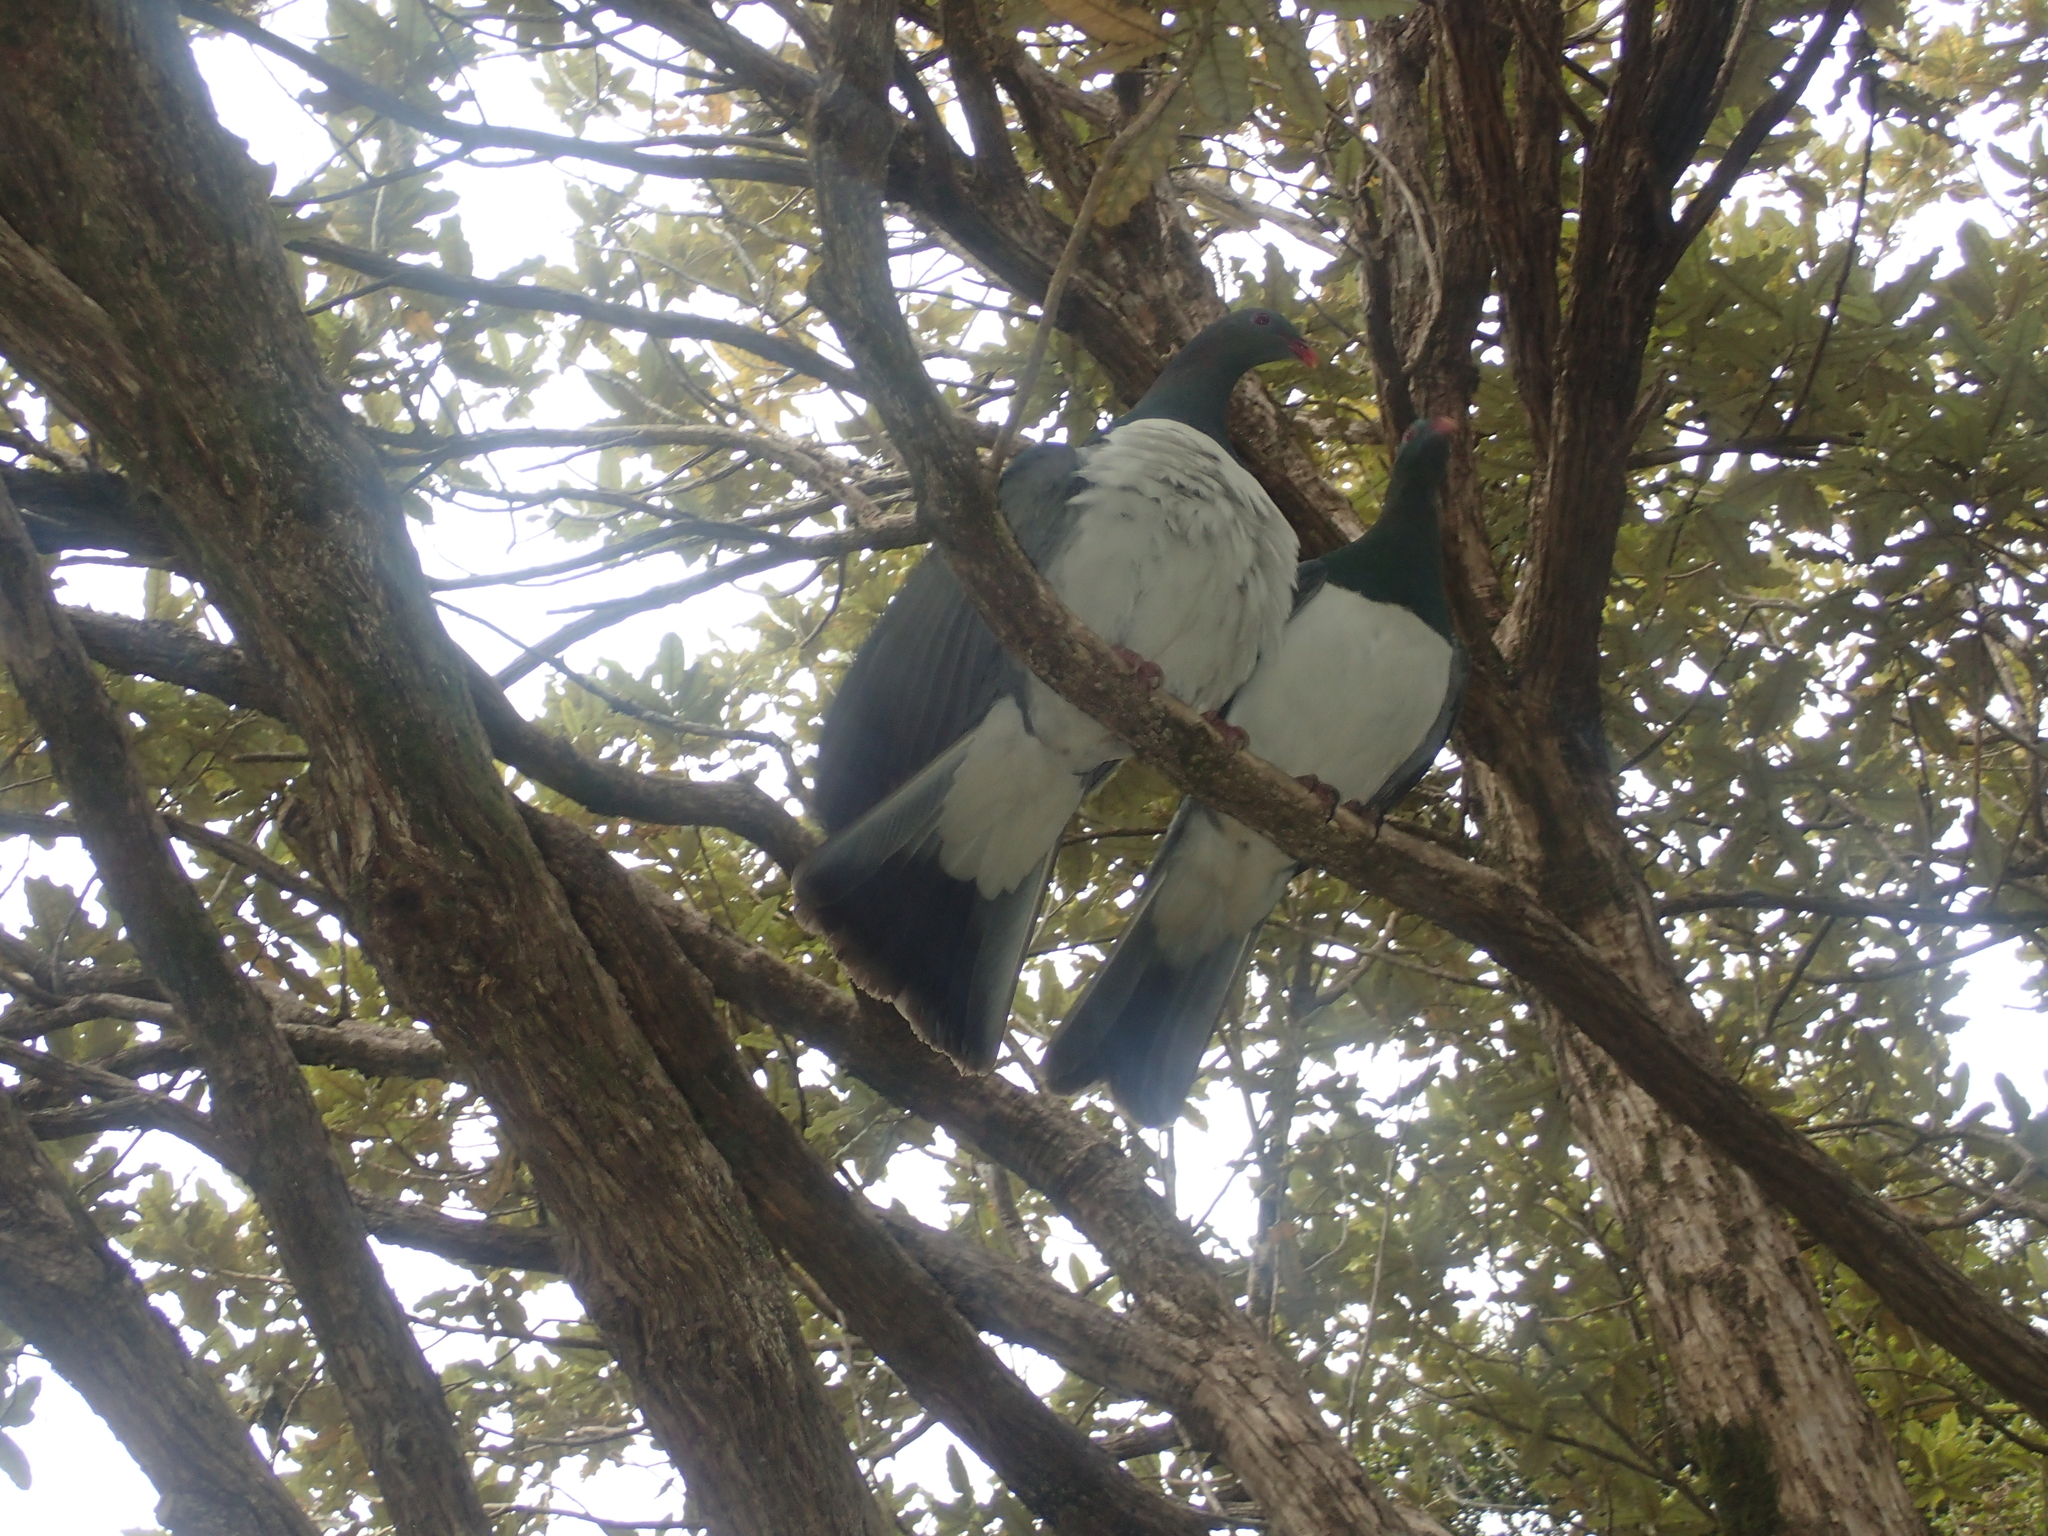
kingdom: Animalia
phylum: Chordata
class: Aves
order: Columbiformes
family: Columbidae
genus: Hemiphaga
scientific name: Hemiphaga novaeseelandiae
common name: New zealand pigeon
